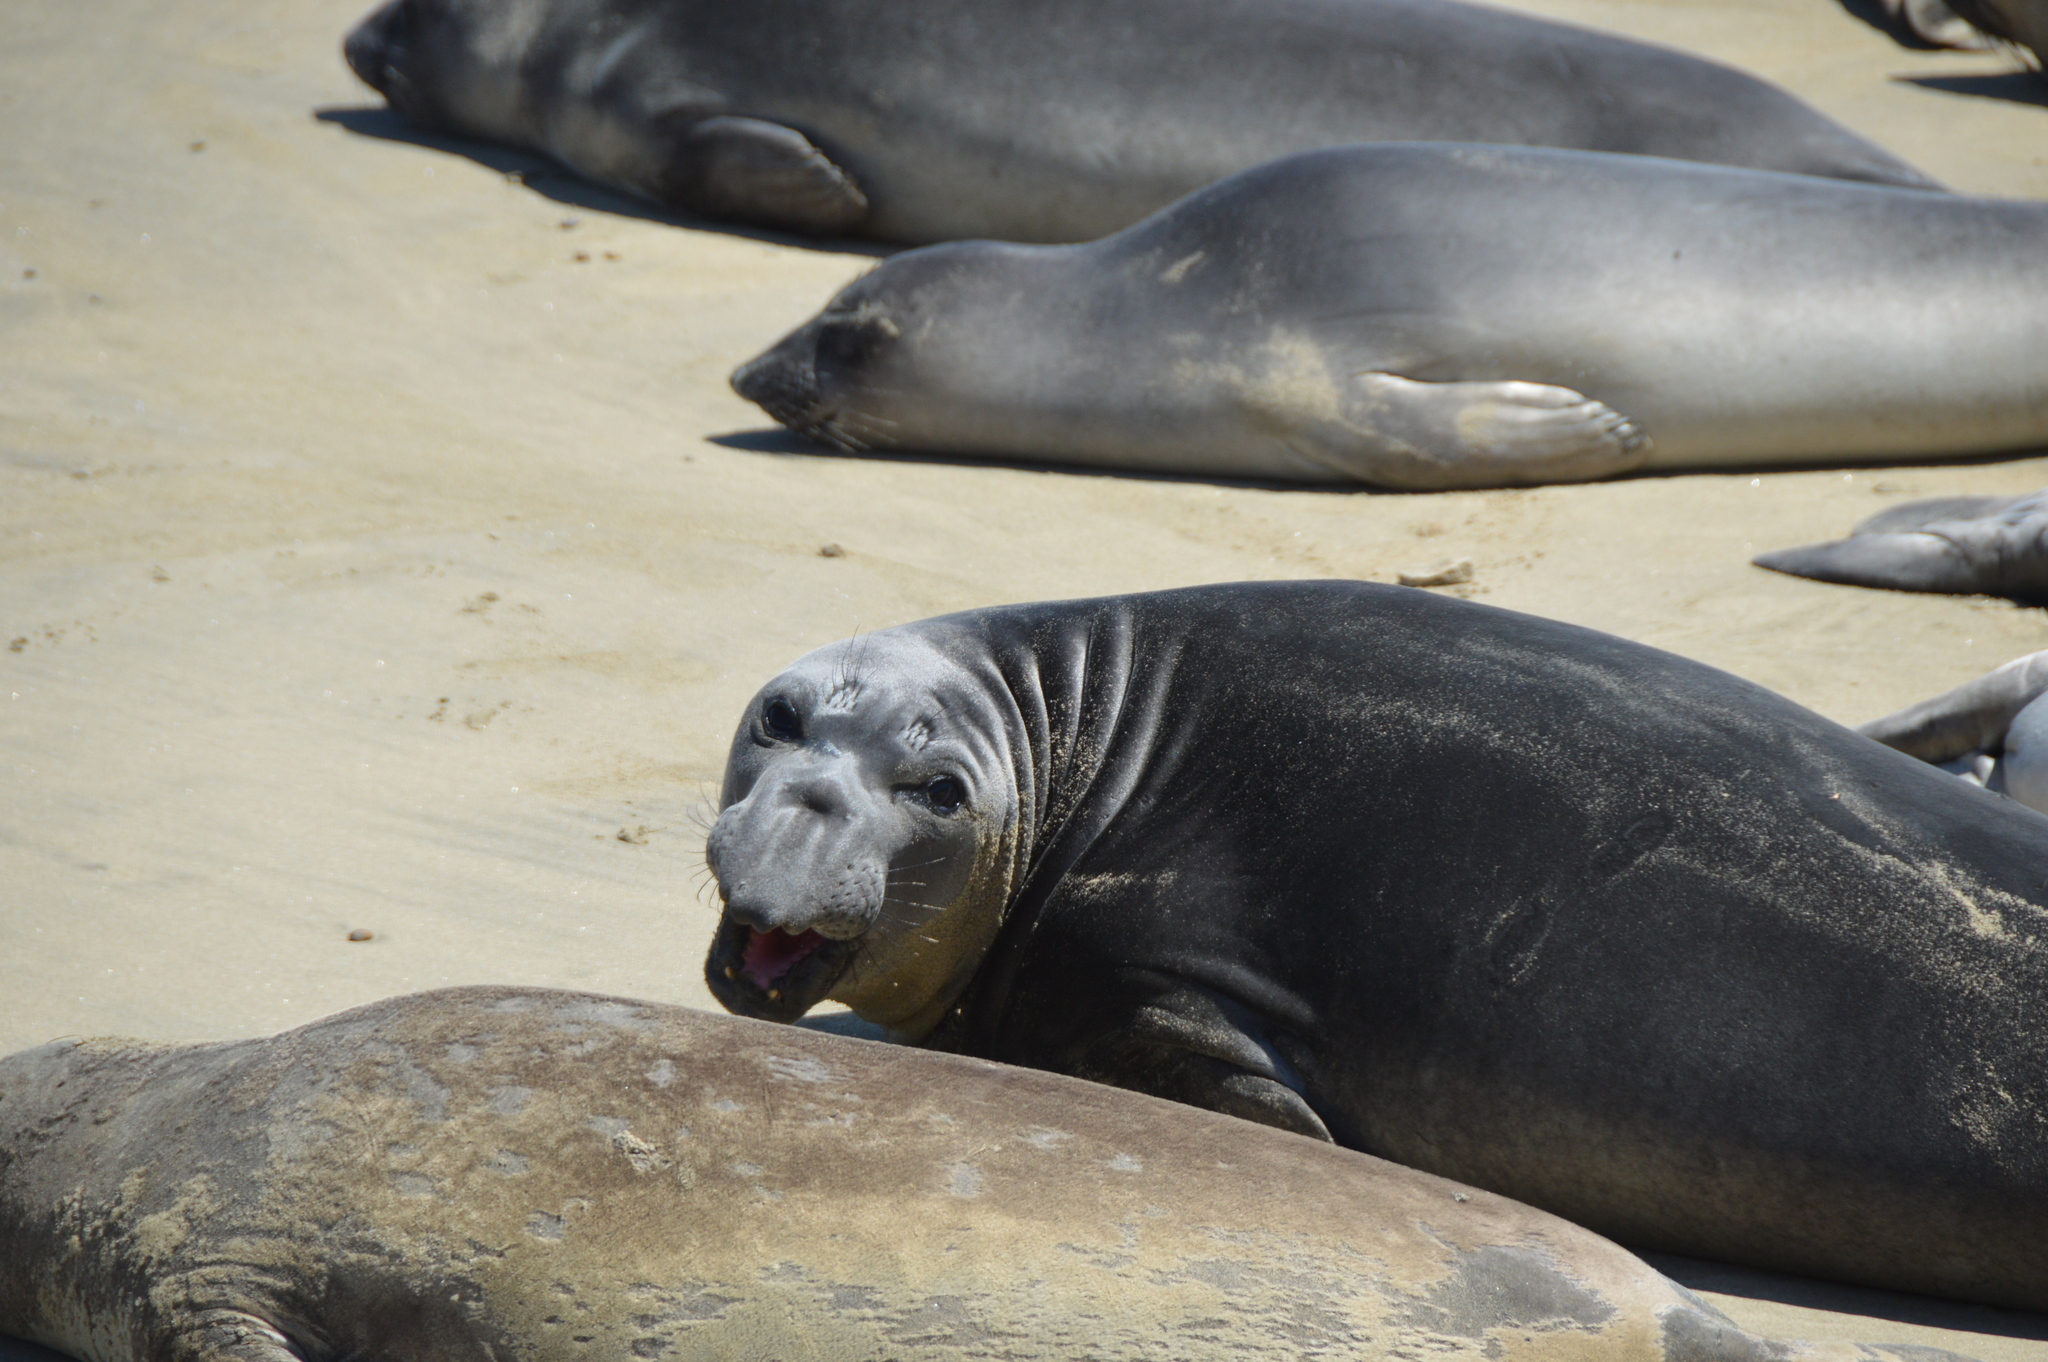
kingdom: Animalia
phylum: Chordata
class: Mammalia
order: Carnivora
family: Phocidae
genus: Mirounga
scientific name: Mirounga angustirostris
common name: Northern elephant seal
